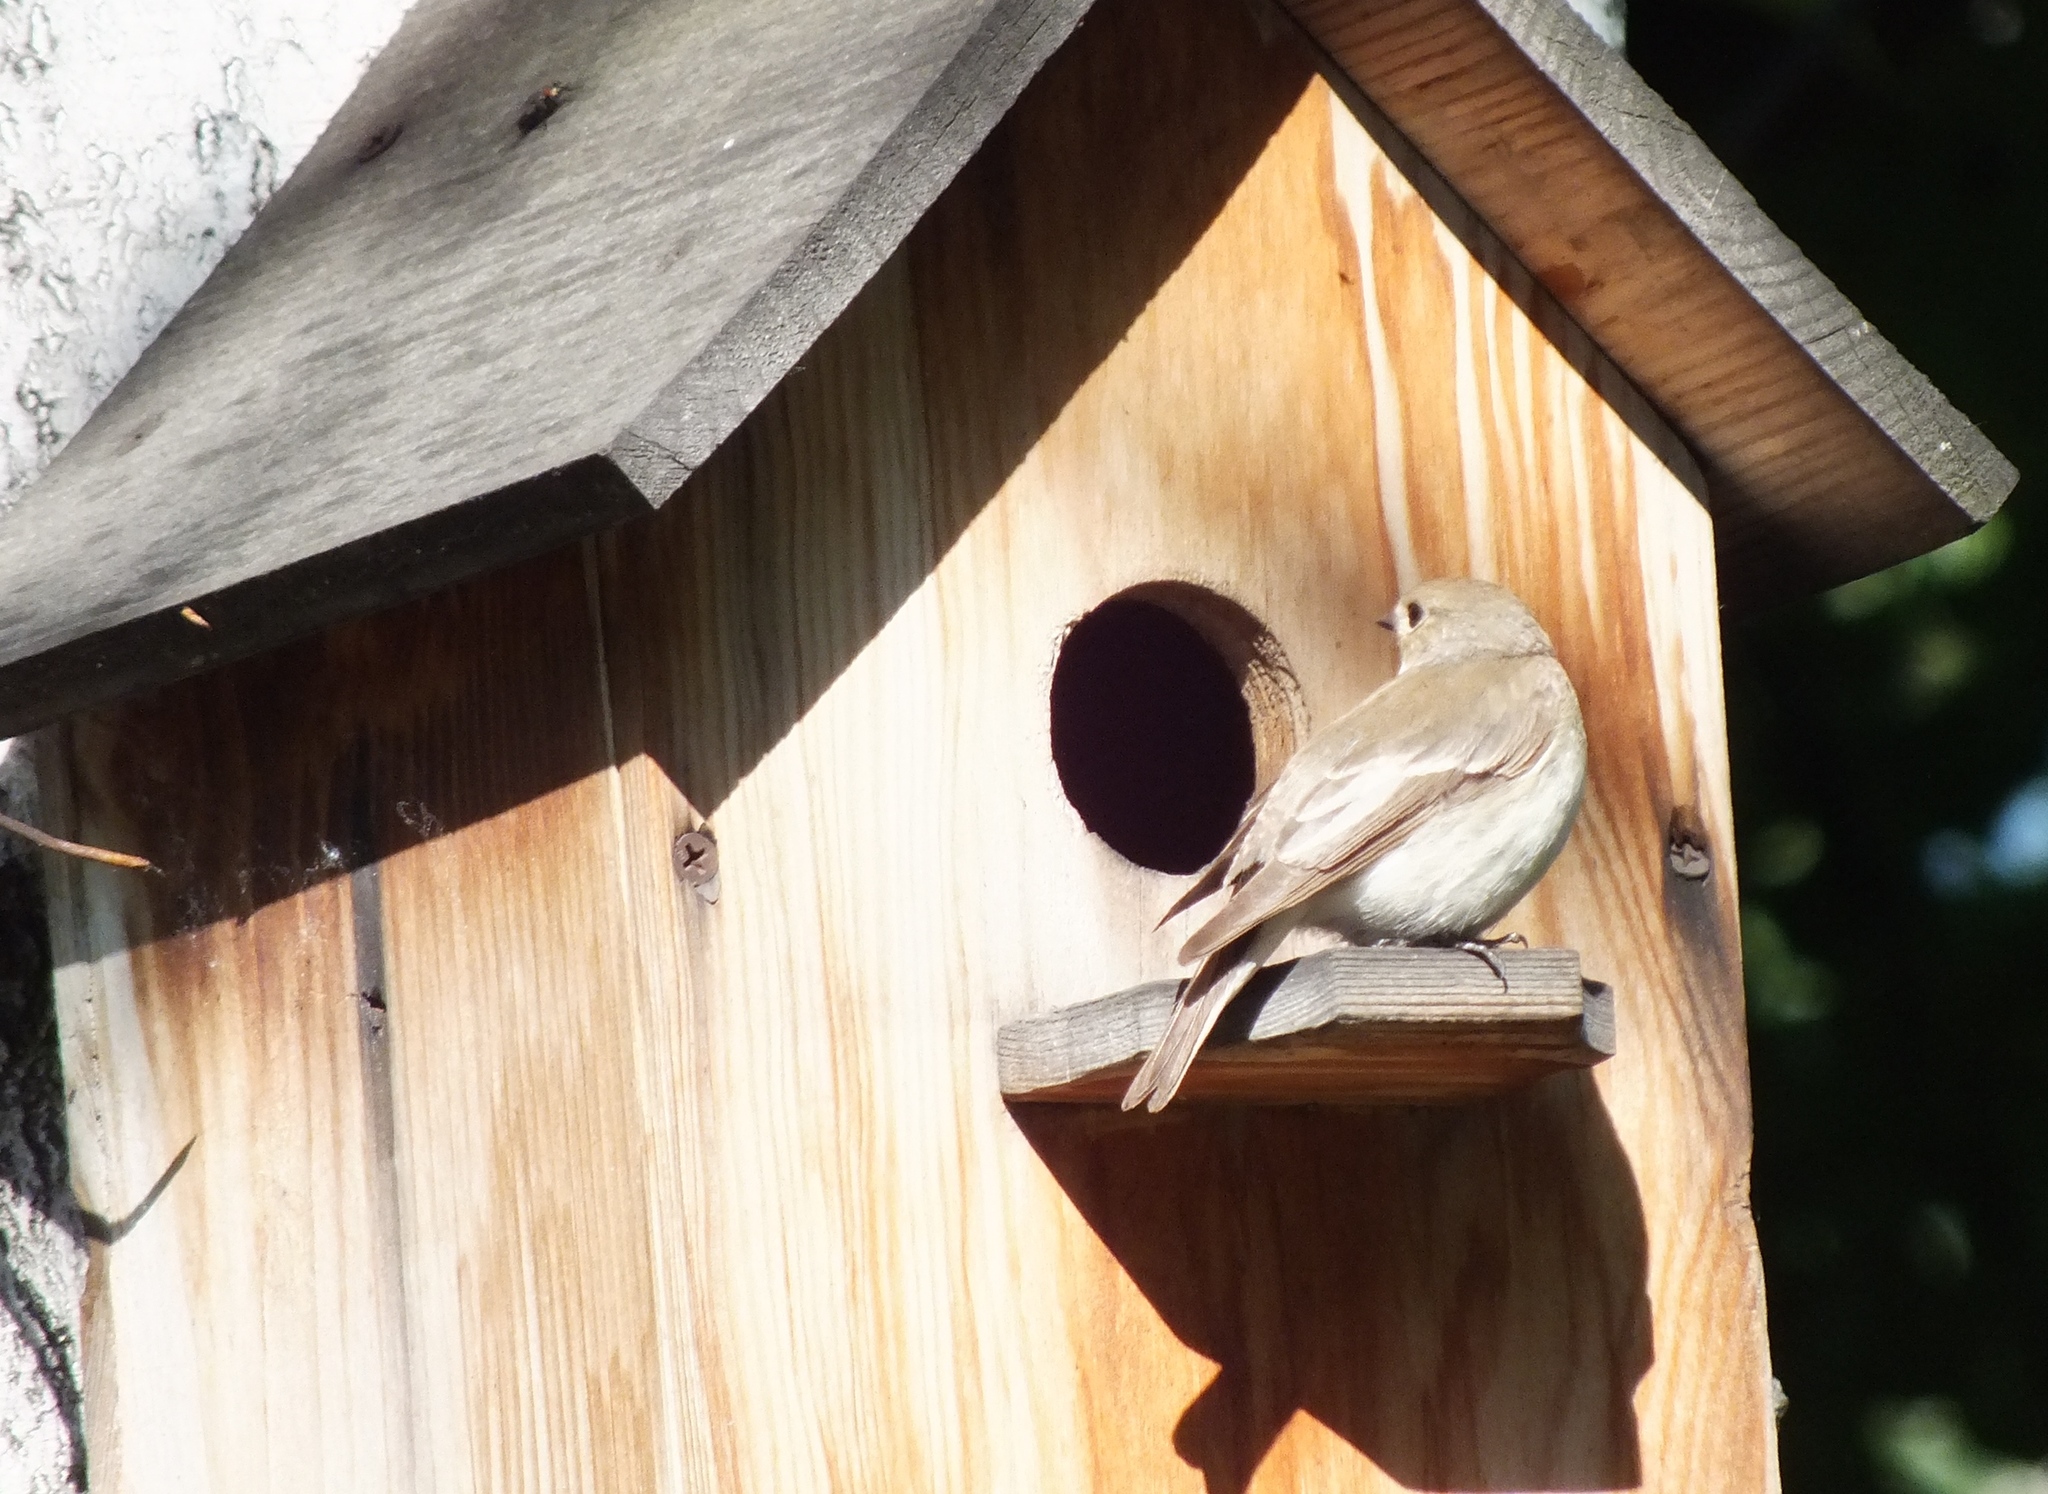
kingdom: Animalia
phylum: Chordata
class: Aves
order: Passeriformes
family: Muscicapidae
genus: Ficedula
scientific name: Ficedula hypoleuca
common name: European pied flycatcher
